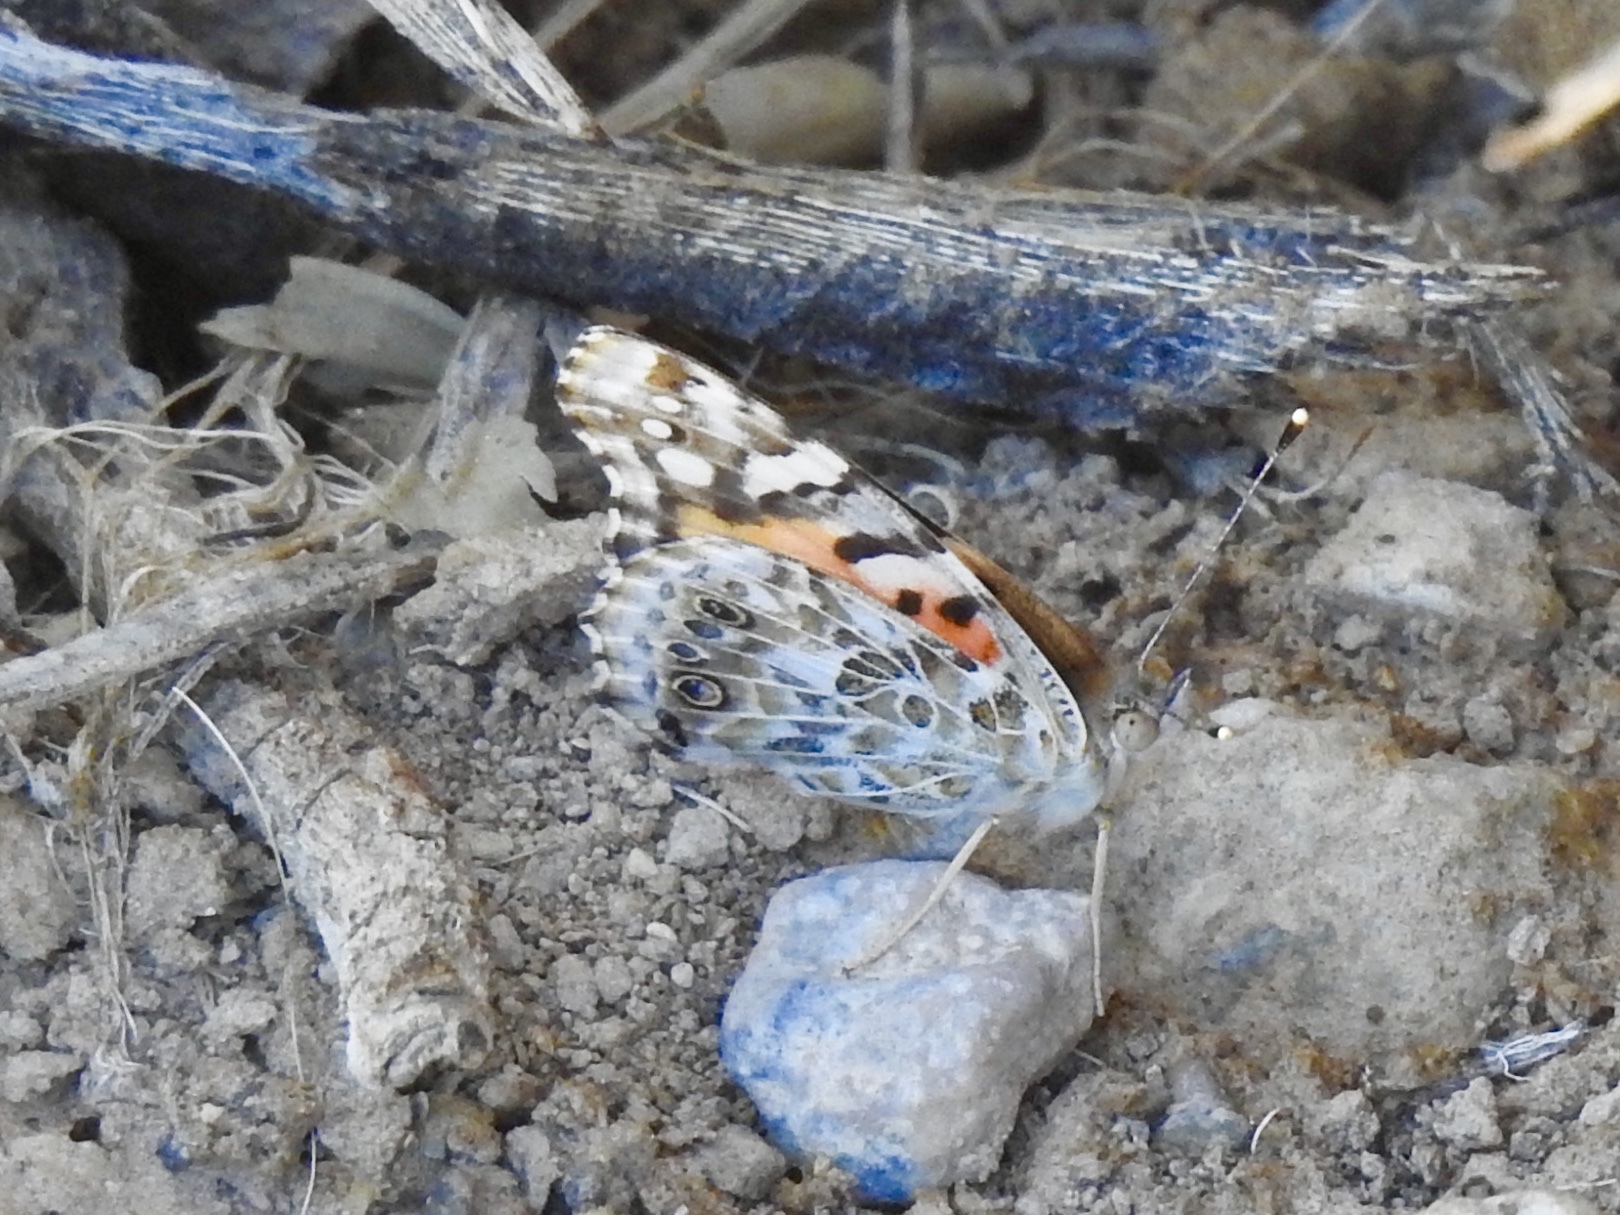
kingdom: Animalia
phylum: Arthropoda
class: Insecta
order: Lepidoptera
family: Nymphalidae
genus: Vanessa
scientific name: Vanessa cardui
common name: Painted lady
